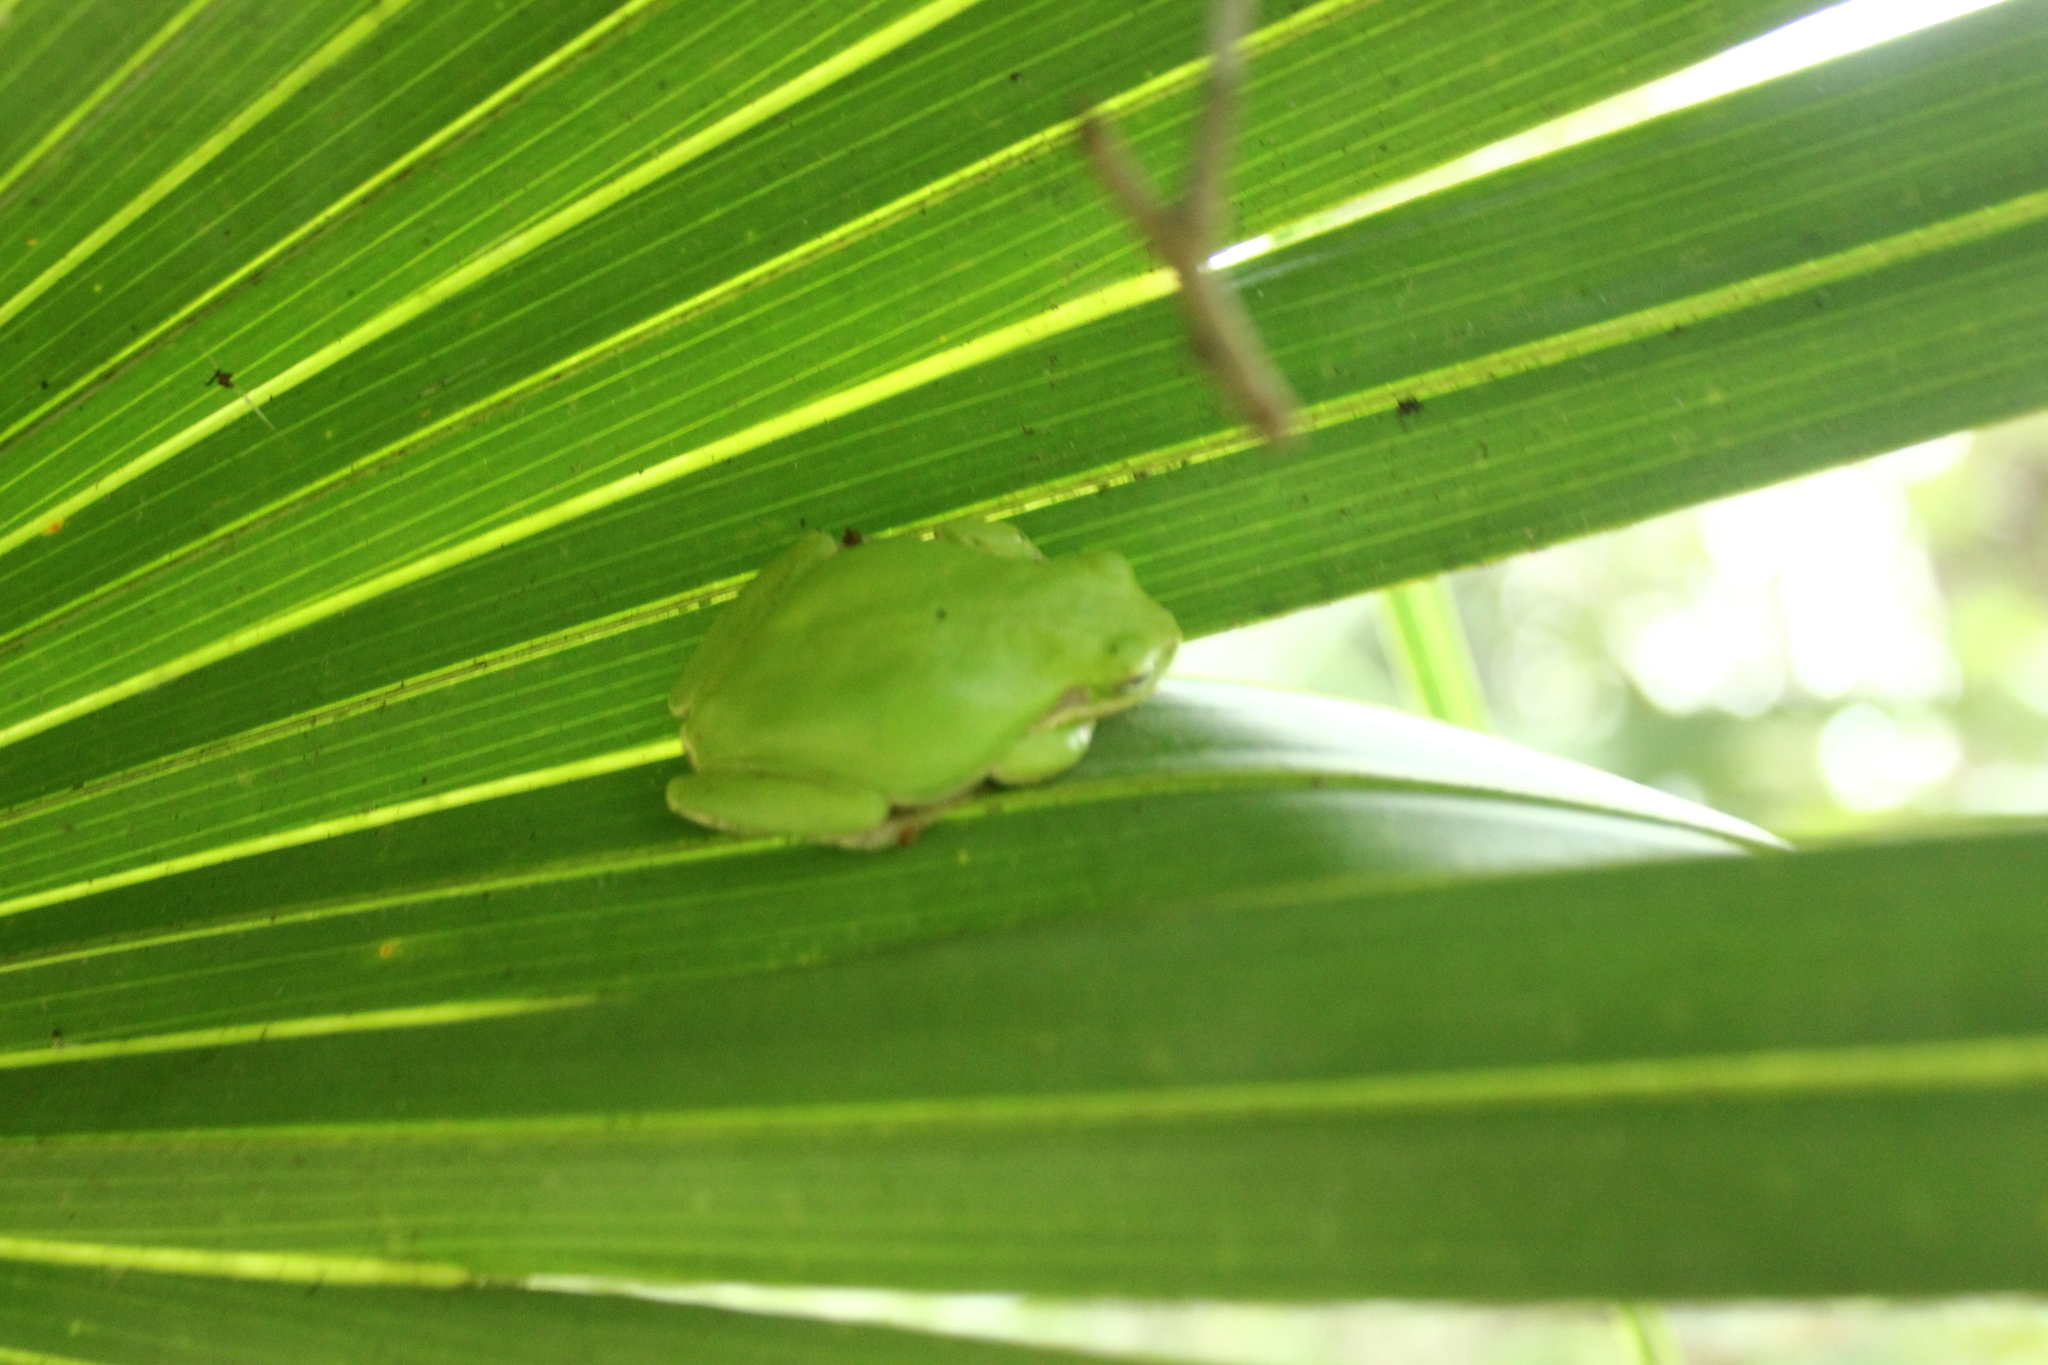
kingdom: Animalia
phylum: Chordata
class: Amphibia
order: Anura
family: Hylidae
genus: Dryophytes
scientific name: Dryophytes squirellus
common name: Squirrel treefrog
